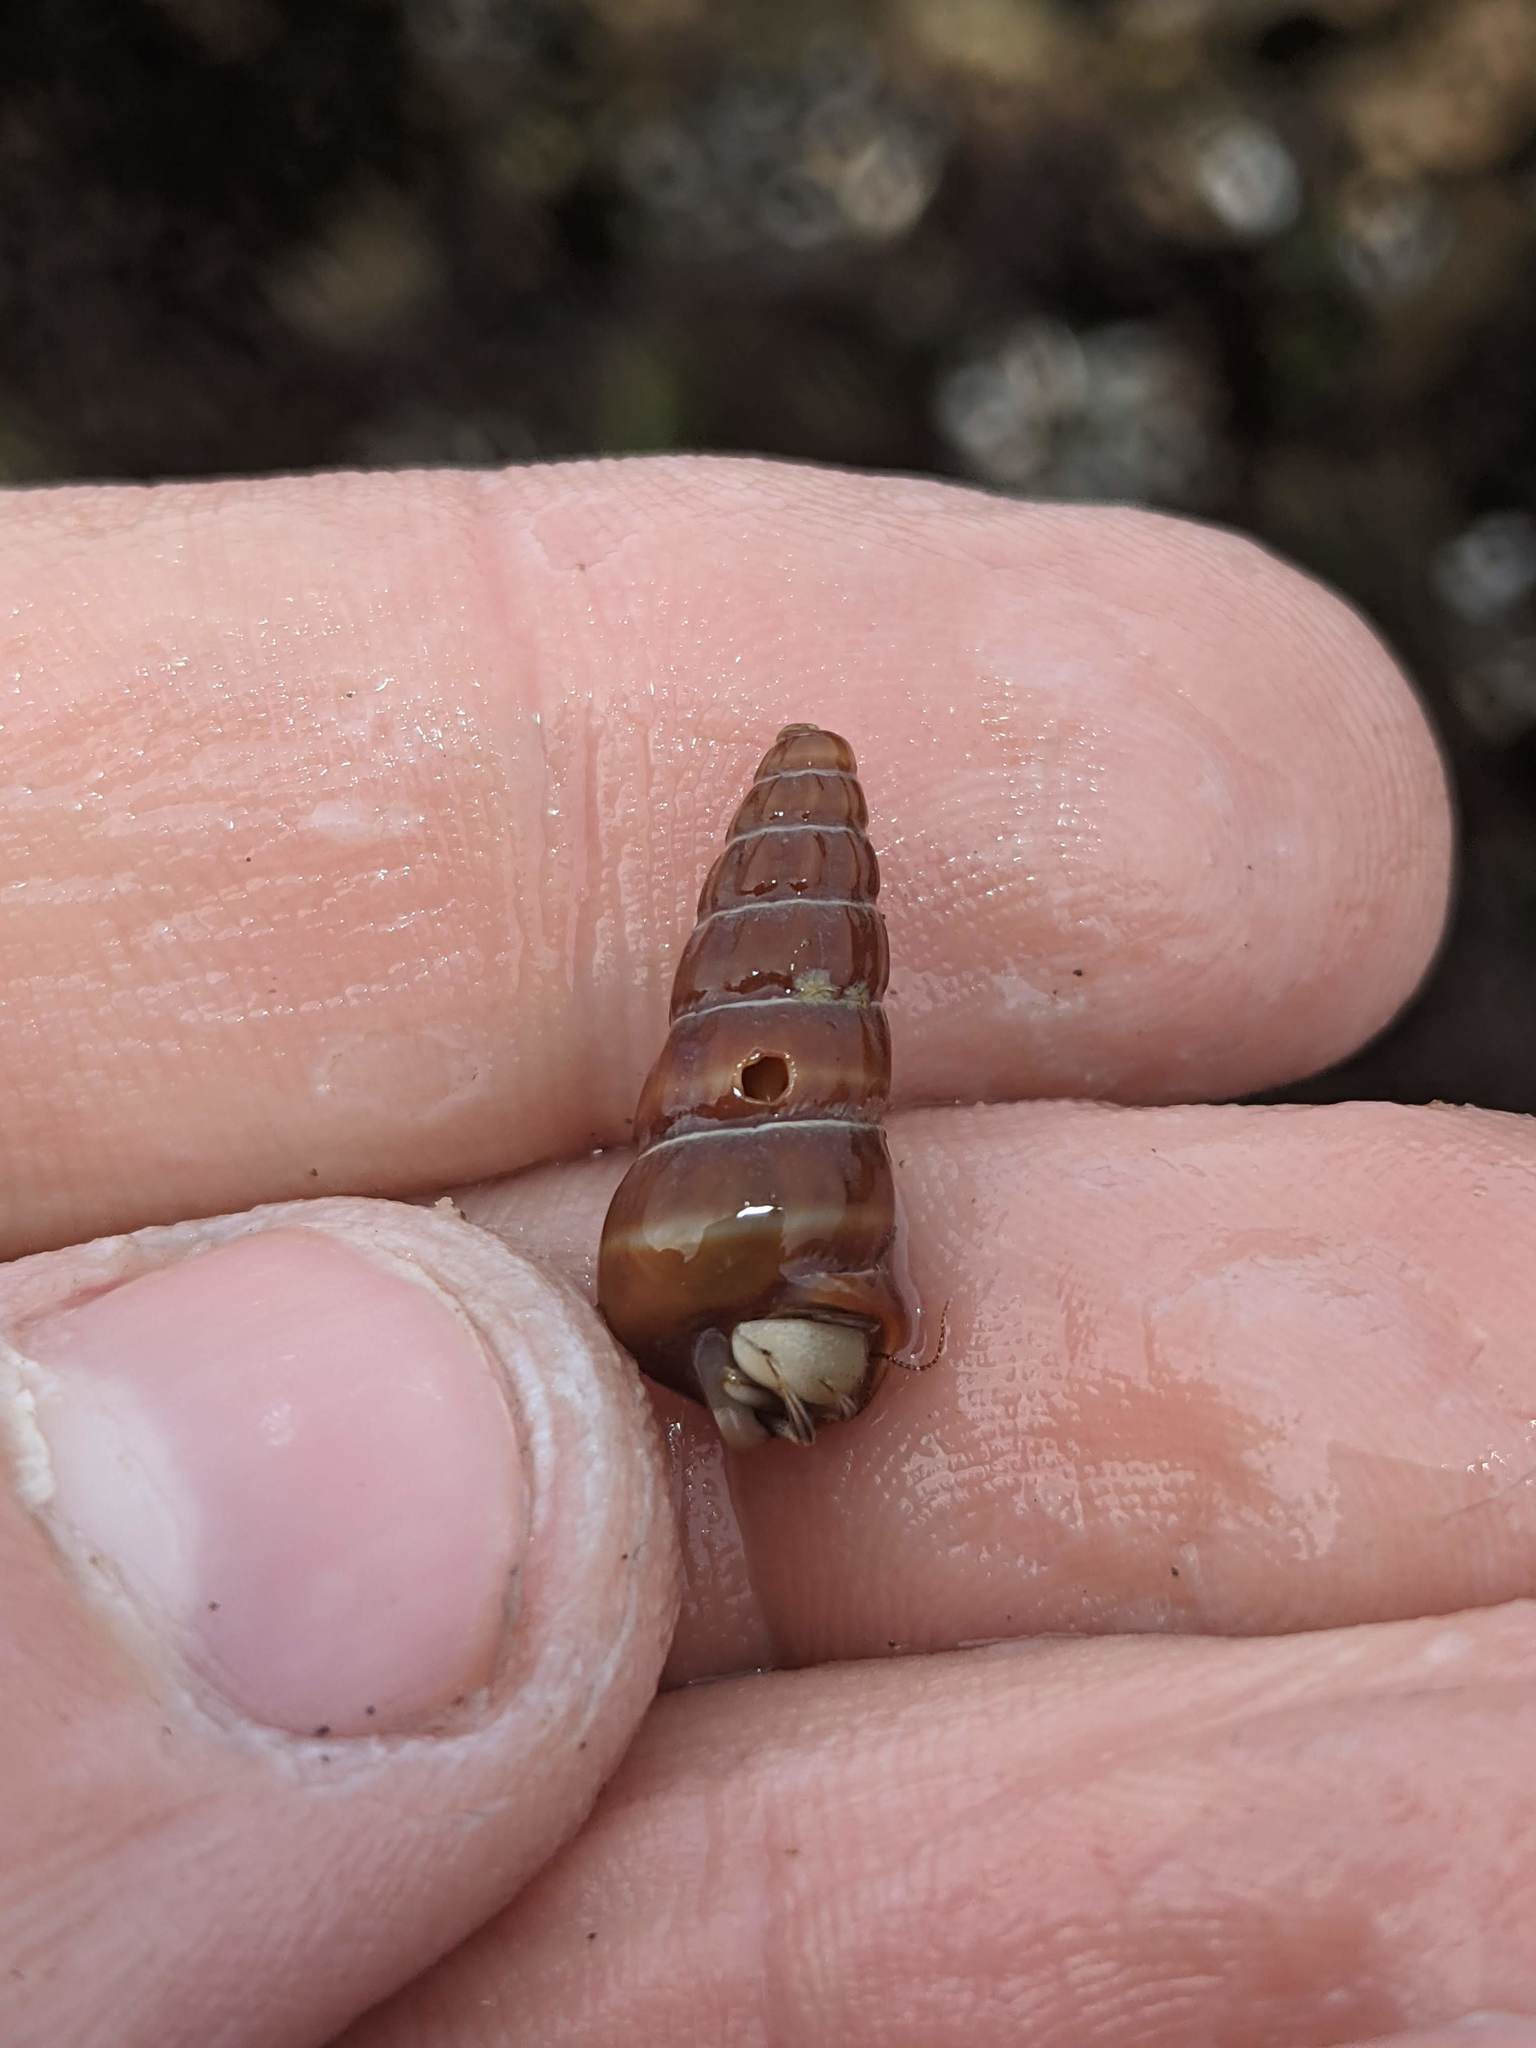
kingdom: Animalia
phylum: Mollusca
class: Gastropoda
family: Potamididae
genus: Cerithideopsis
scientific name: Cerithideopsis californica
